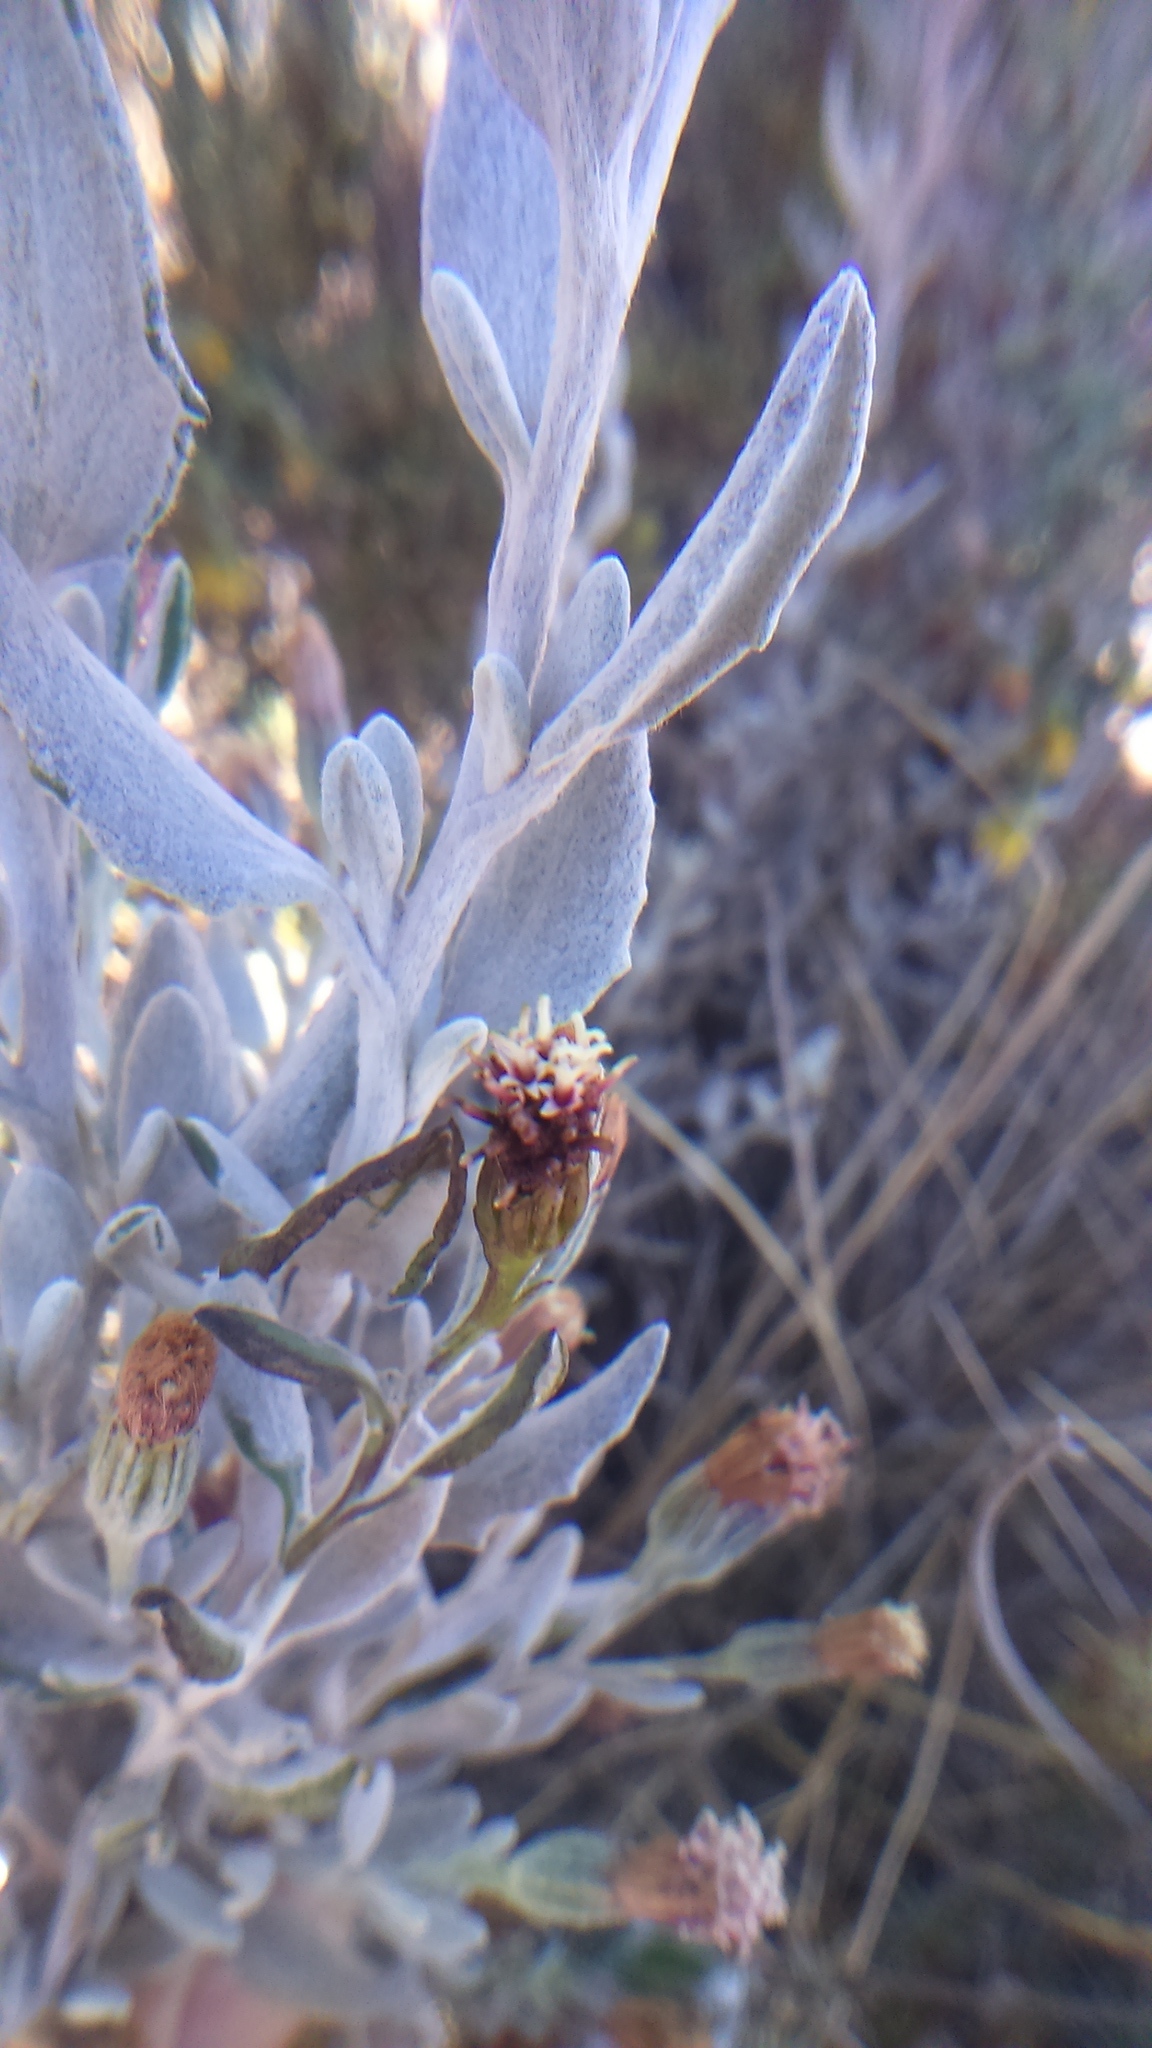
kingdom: Plantae
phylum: Tracheophyta
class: Magnoliopsida
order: Asterales
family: Asteraceae
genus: Chersodoma
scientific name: Chersodoma jodopappa
